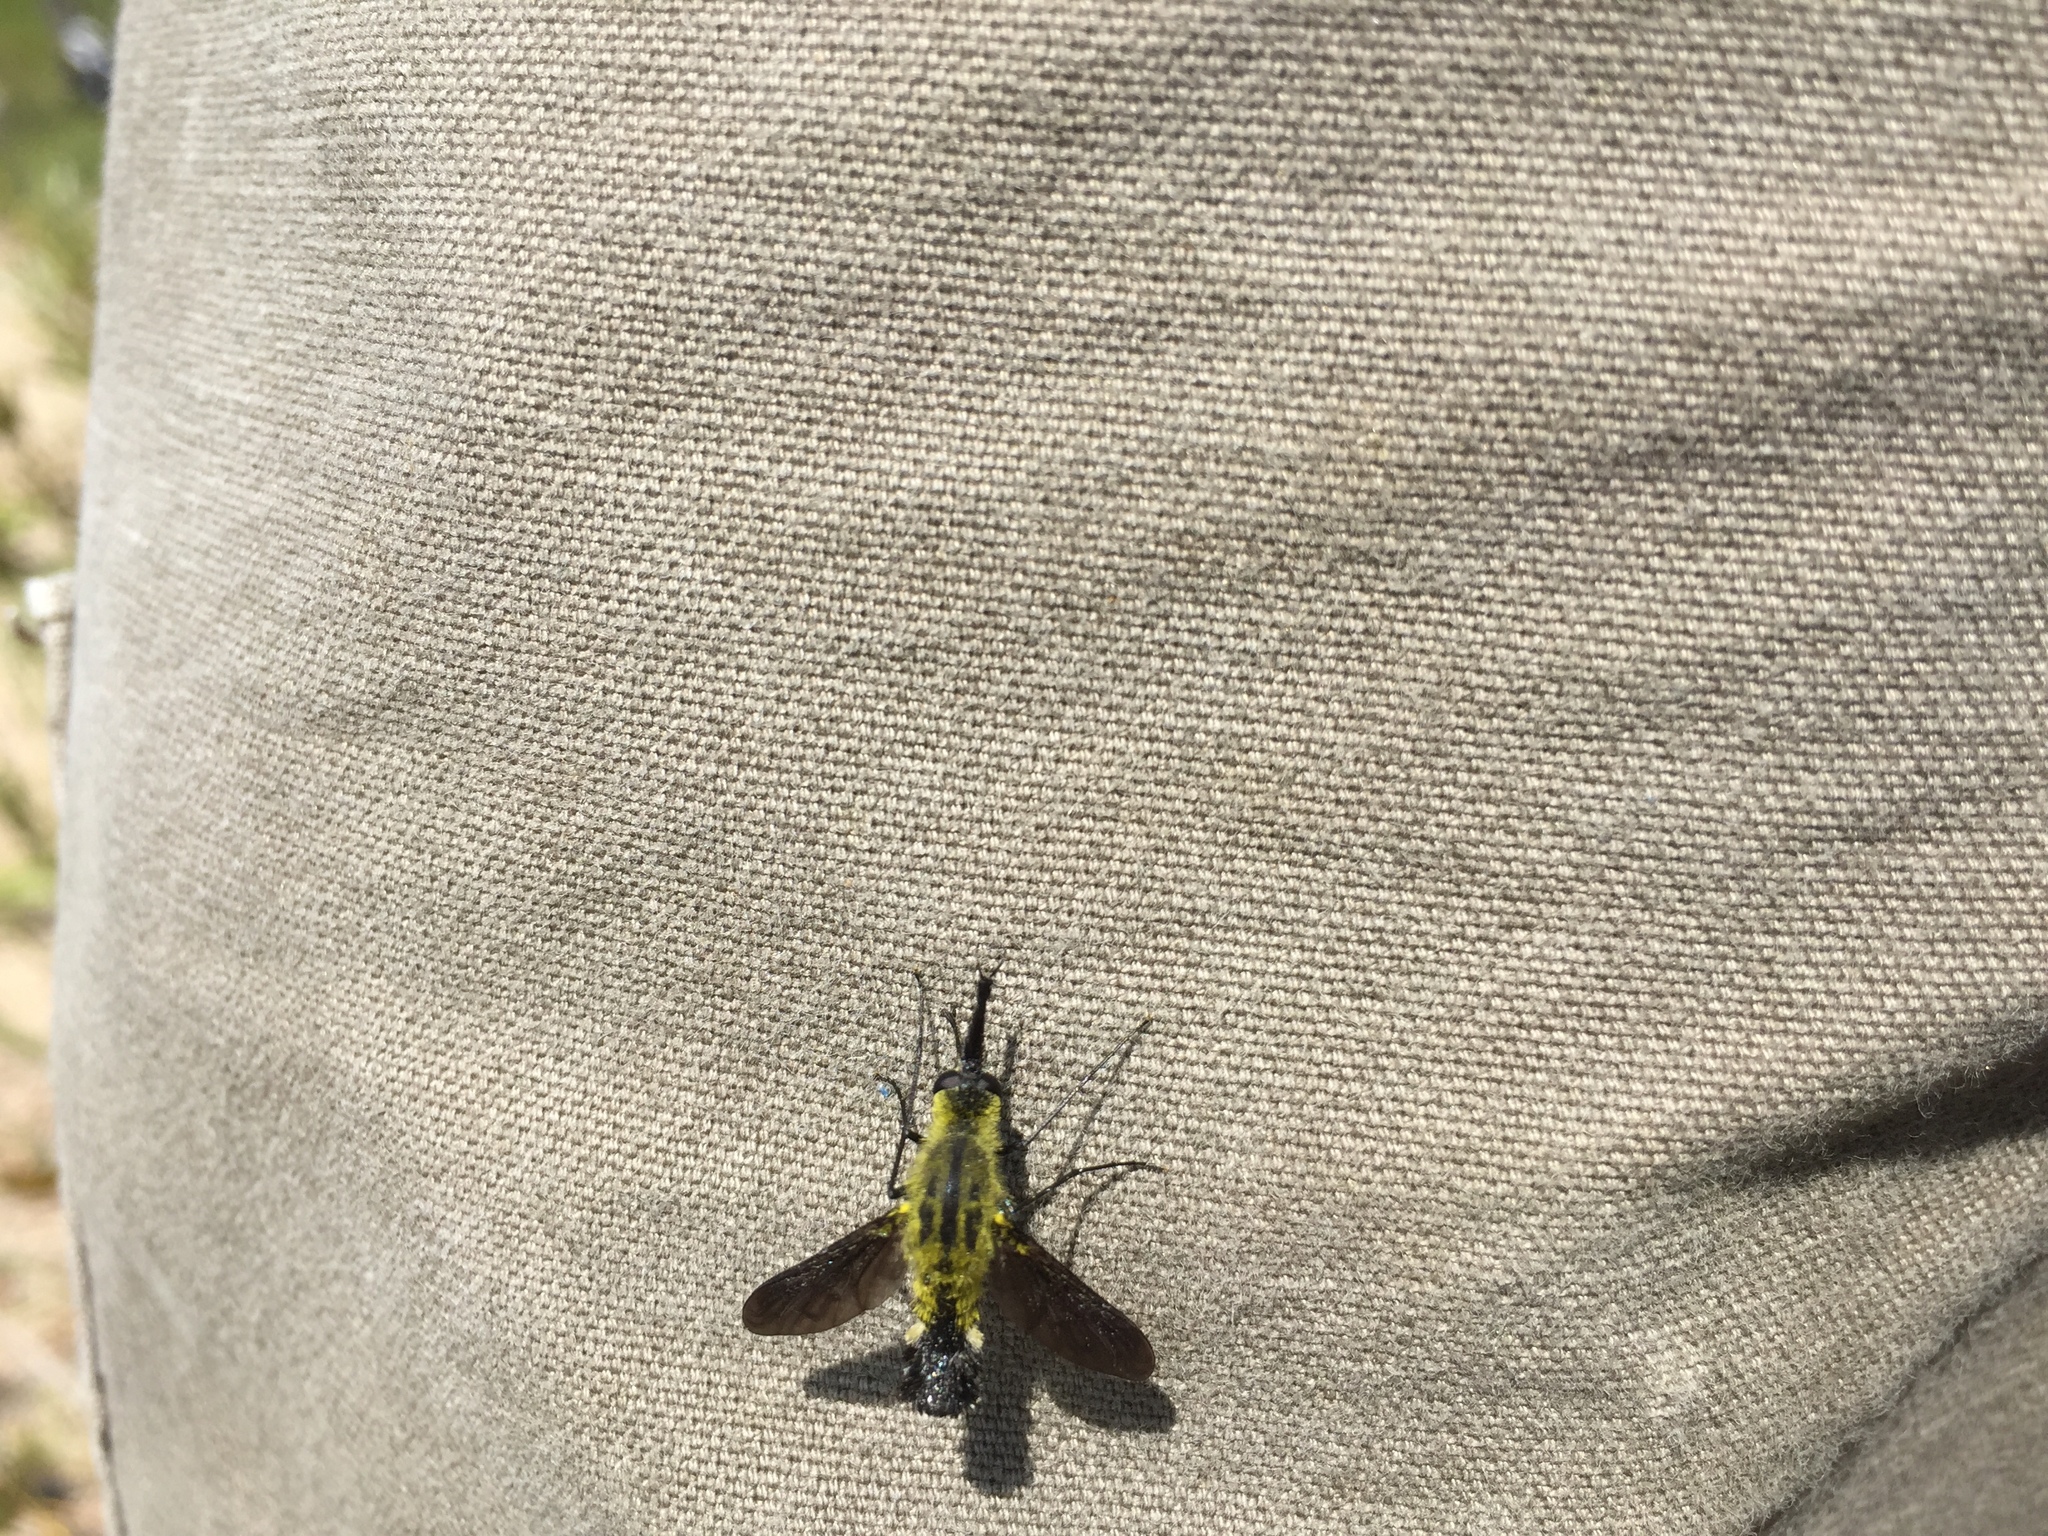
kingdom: Animalia
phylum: Arthropoda
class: Insecta
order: Diptera
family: Bombyliidae
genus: Lepidophora
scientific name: Lepidophora lutea
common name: Hunchback bee fly
